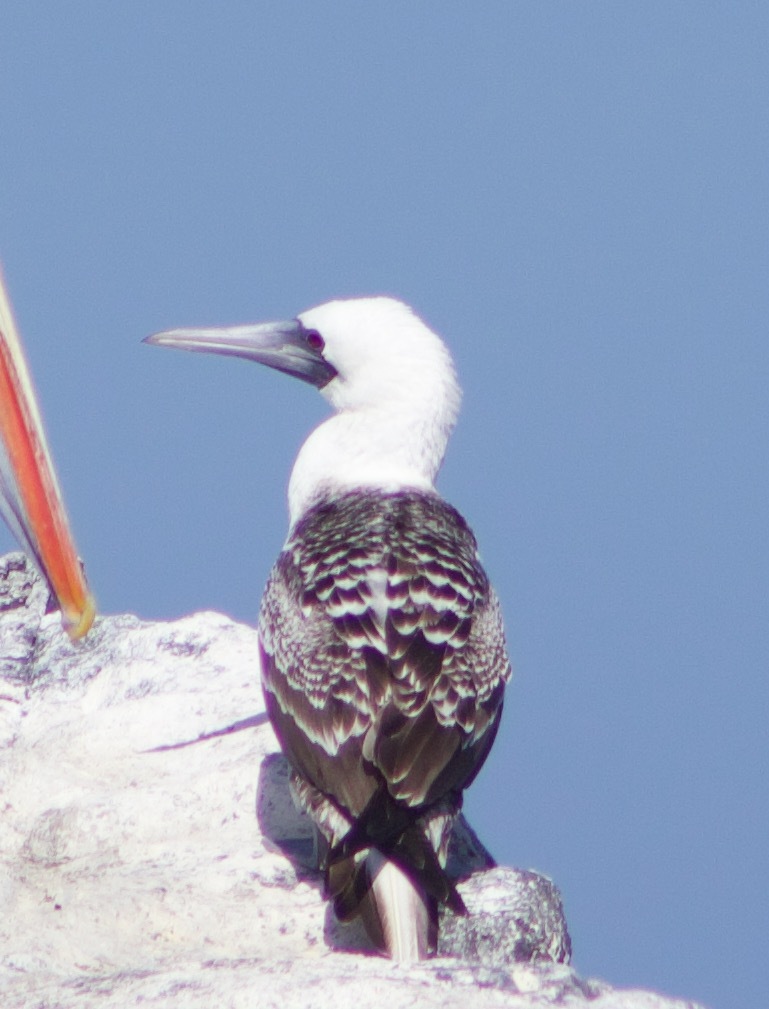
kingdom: Animalia
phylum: Chordata
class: Aves
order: Suliformes
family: Sulidae
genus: Sula
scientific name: Sula variegata
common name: Peruvian booby
